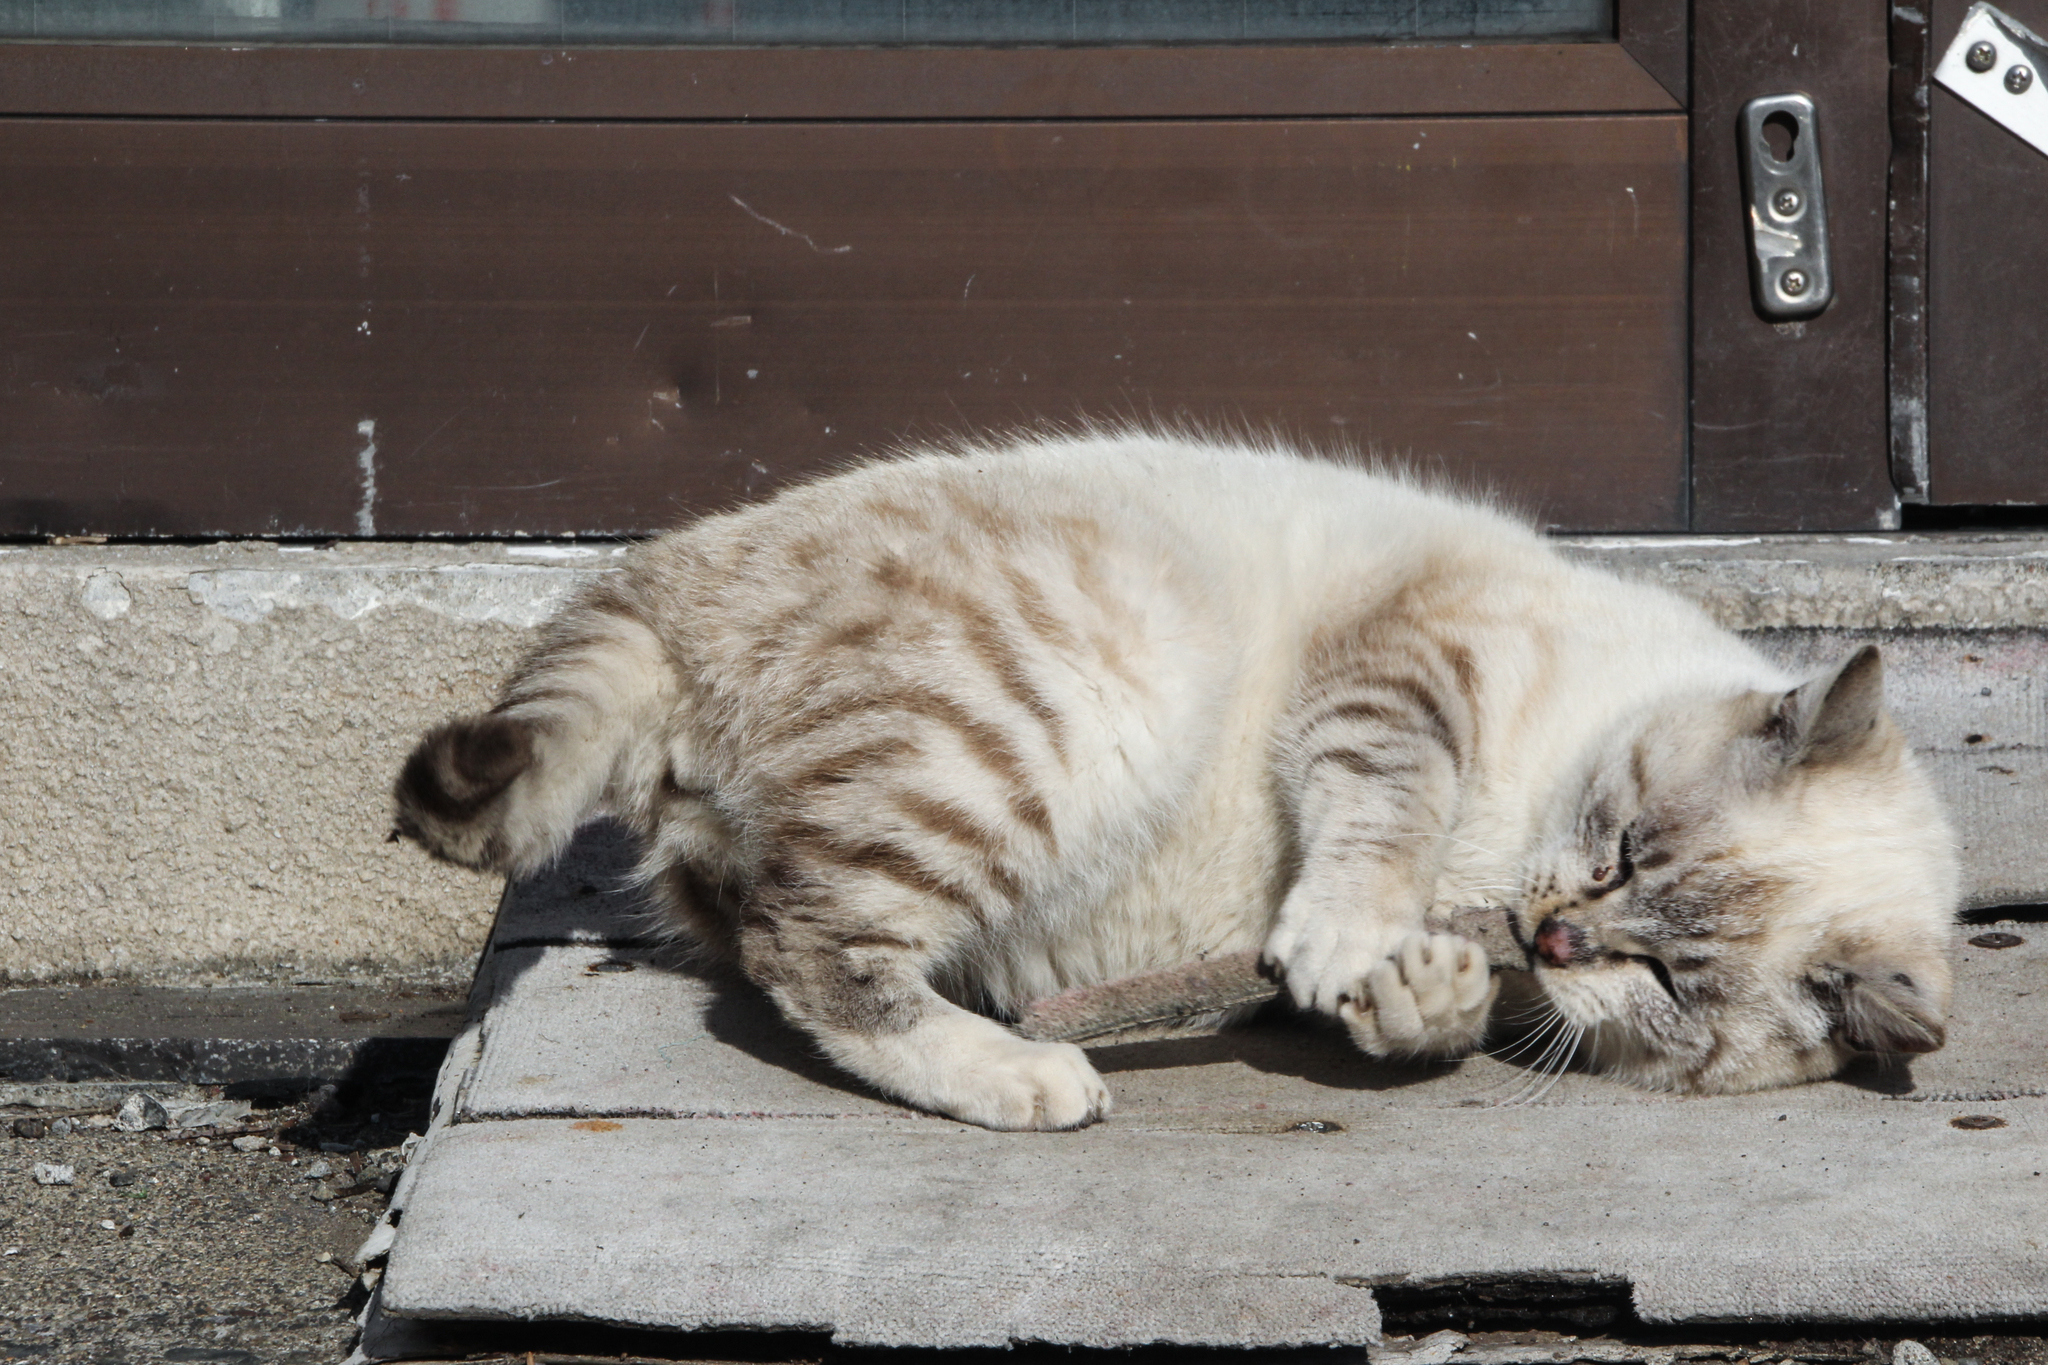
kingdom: Animalia
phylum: Chordata
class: Mammalia
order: Carnivora
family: Felidae
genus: Felis
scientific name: Felis catus
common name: Domestic cat
